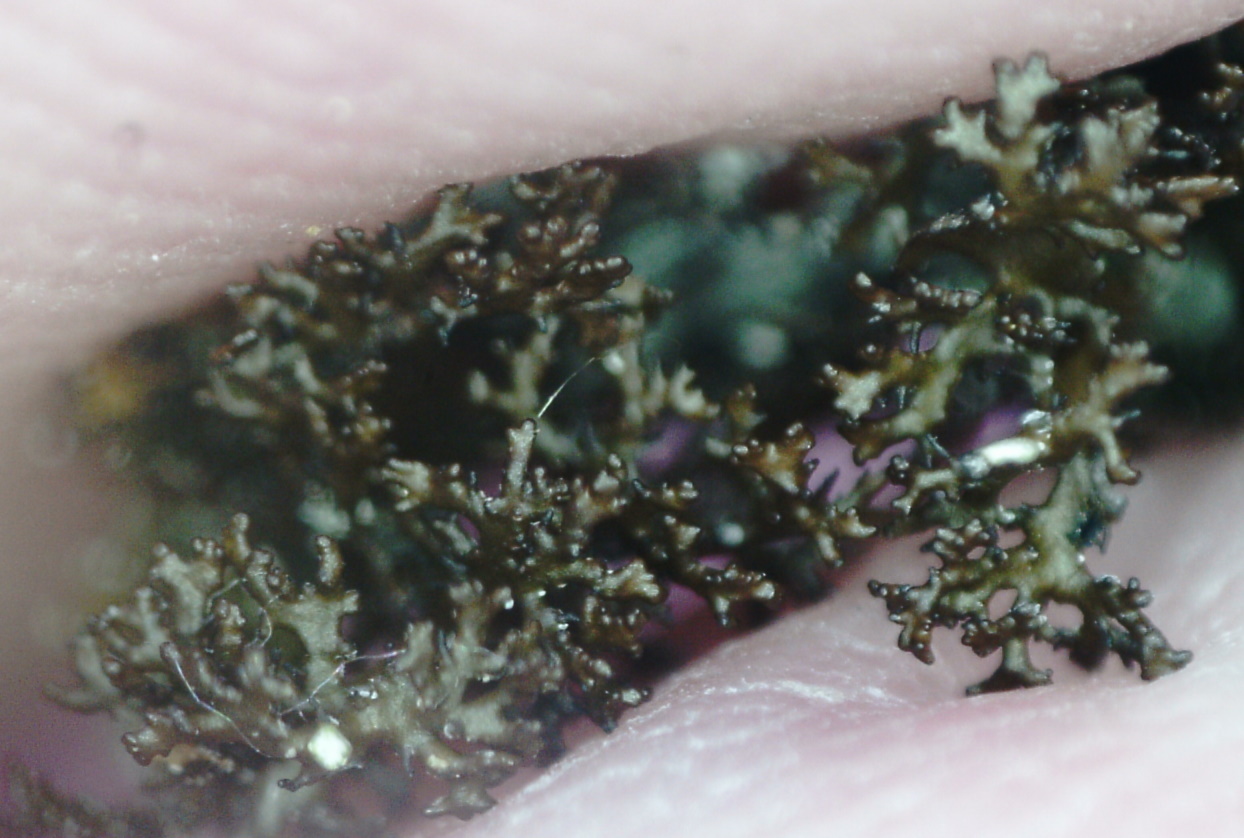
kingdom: Fungi
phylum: Ascomycota
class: Lecanoromycetes
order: Lecanorales
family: Parmeliaceae
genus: Cetraria
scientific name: Cetraria odontella
